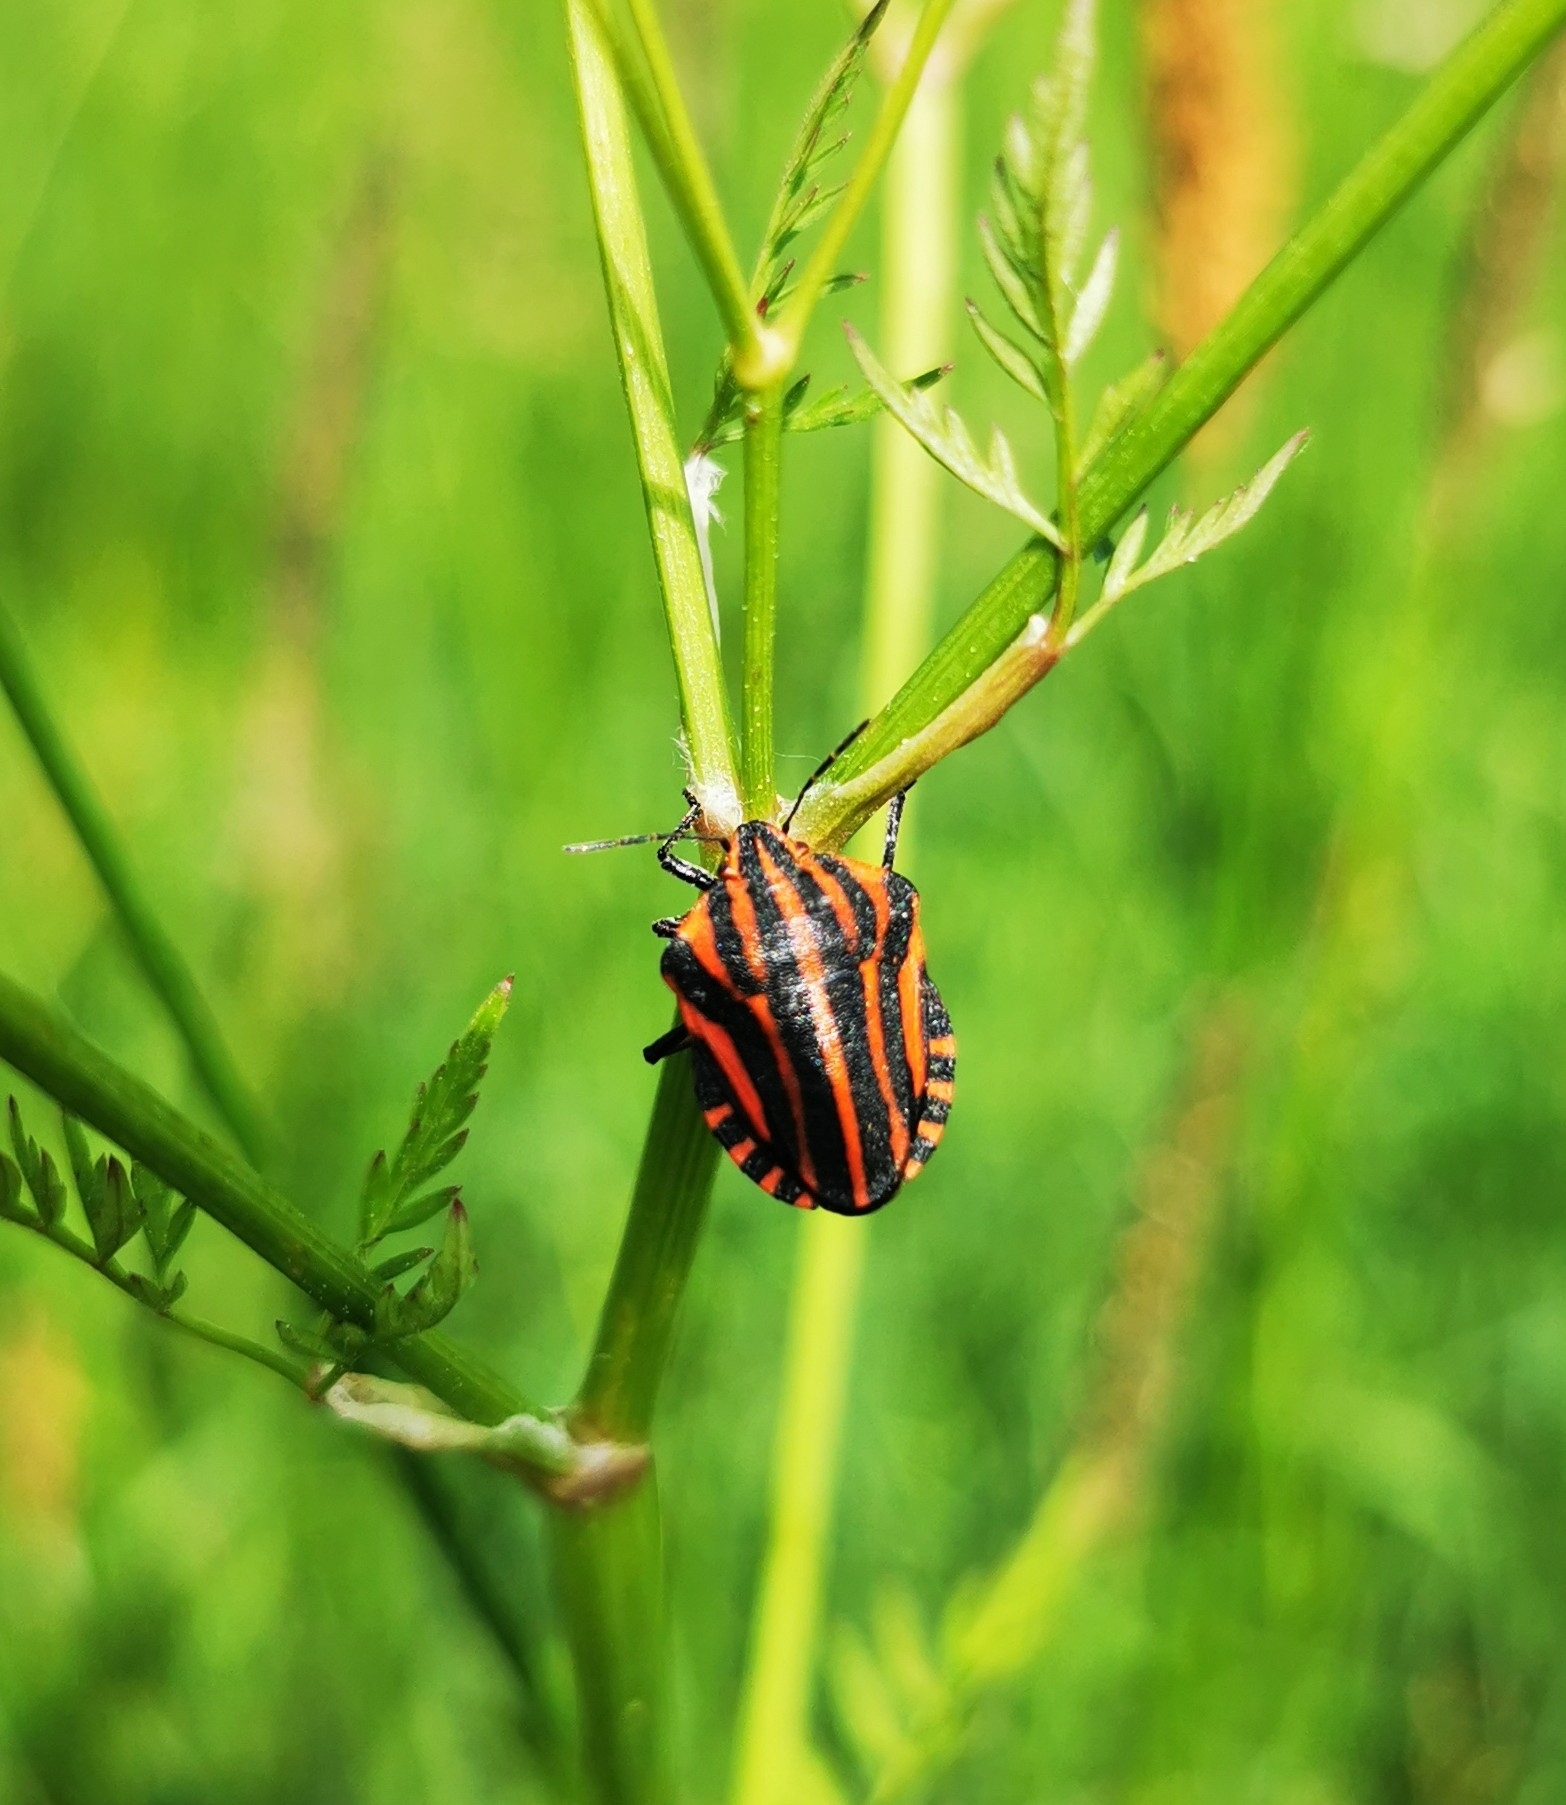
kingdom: Animalia
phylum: Arthropoda
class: Insecta
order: Hemiptera
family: Pentatomidae
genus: Graphosoma
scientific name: Graphosoma italicum
